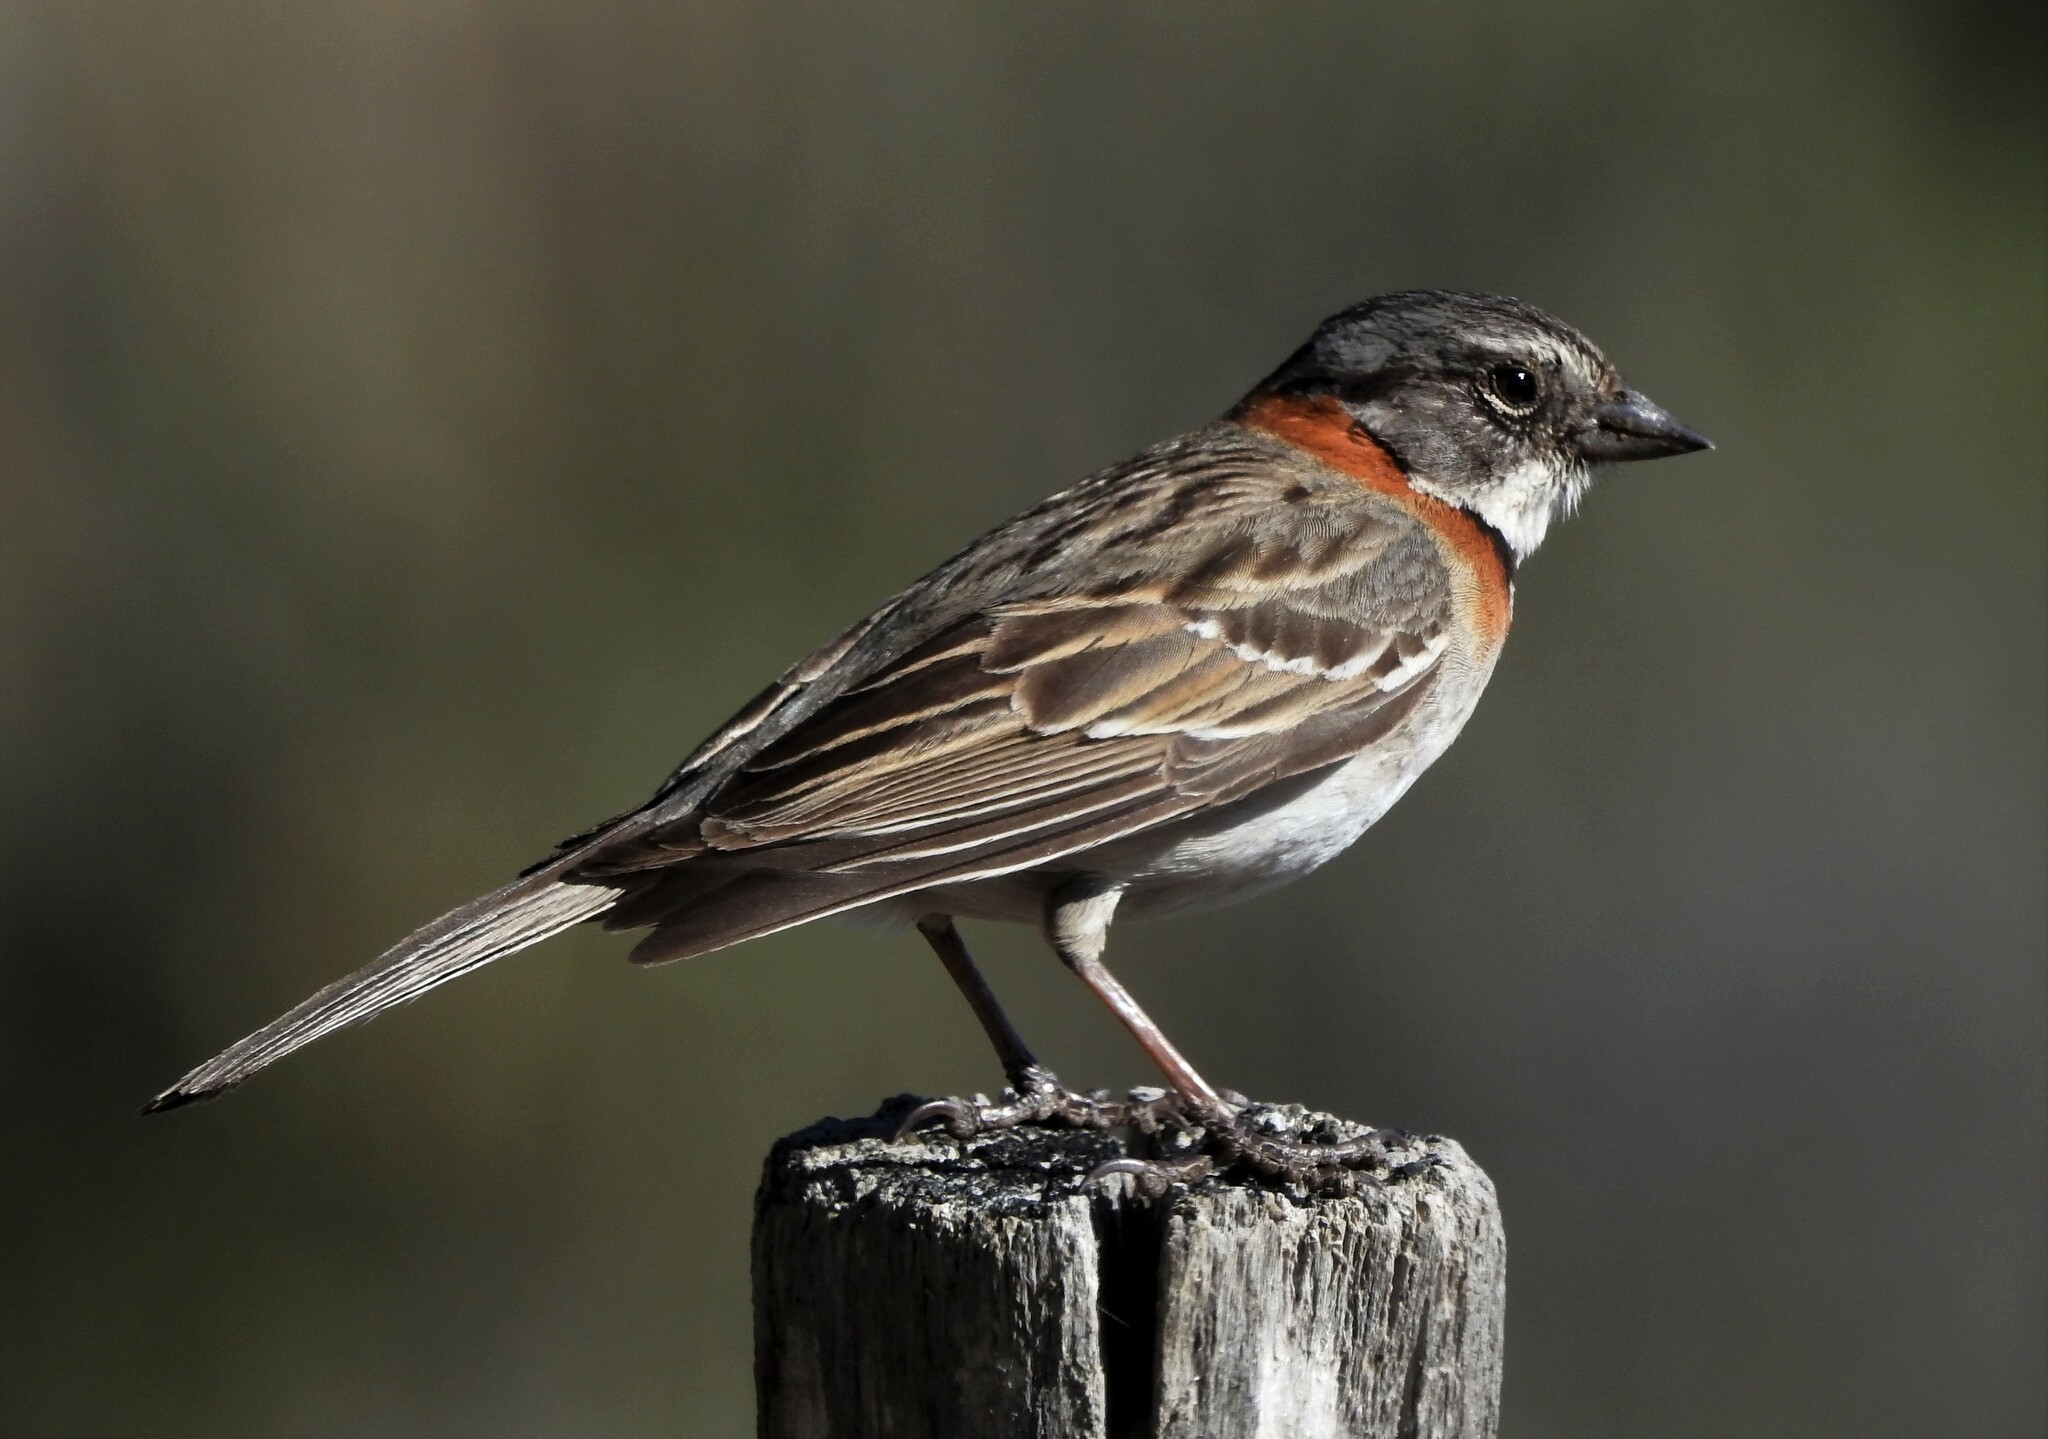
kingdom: Animalia
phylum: Chordata
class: Aves
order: Passeriformes
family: Passerellidae
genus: Zonotrichia
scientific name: Zonotrichia capensis
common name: Rufous-collared sparrow
